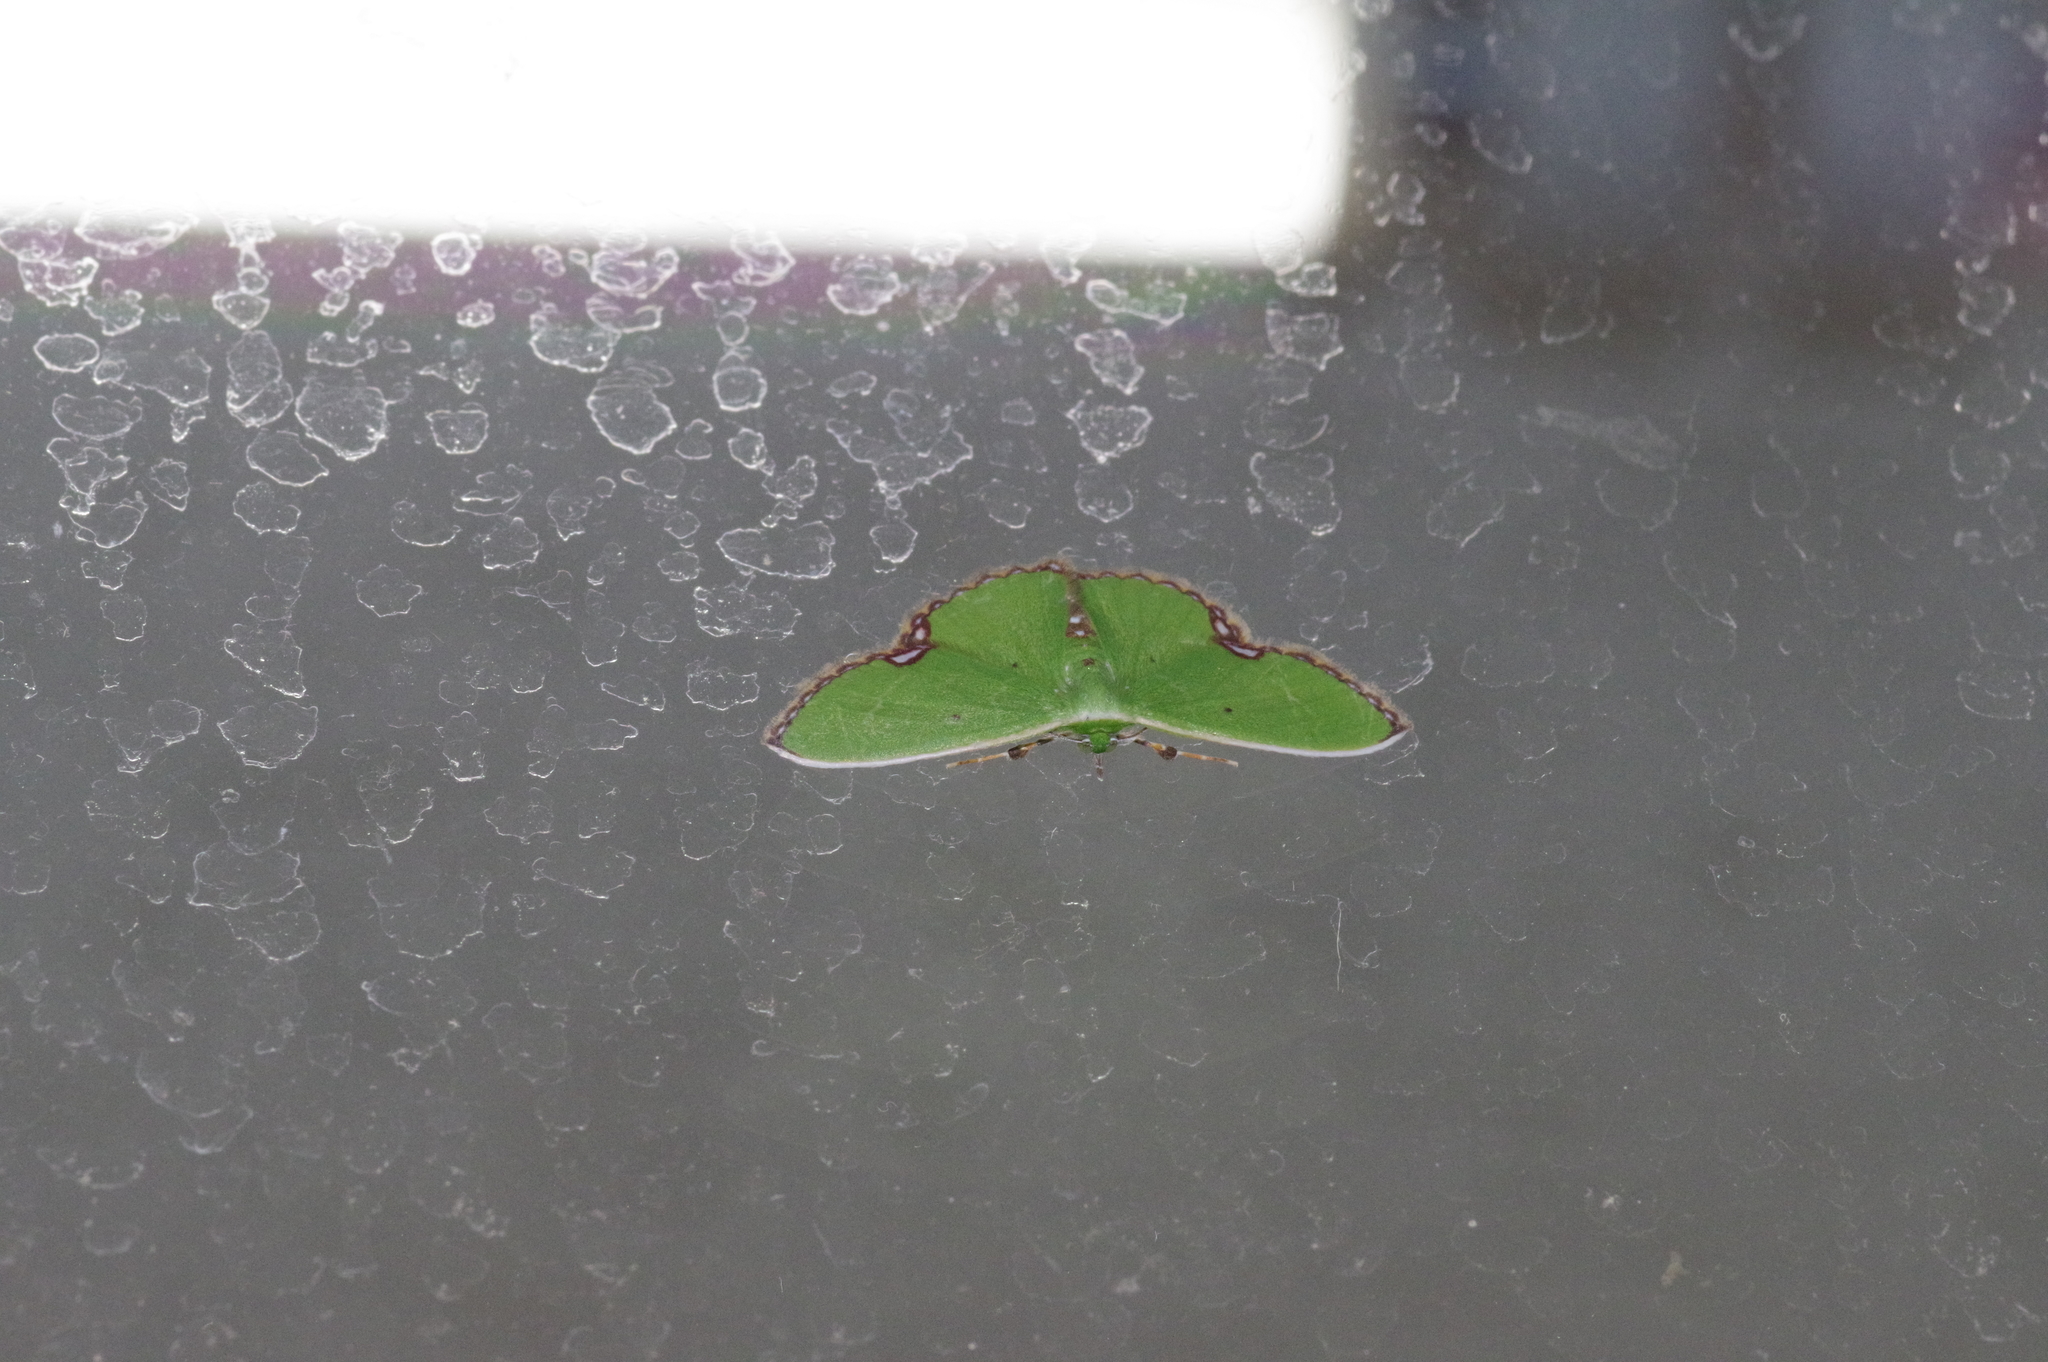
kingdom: Animalia
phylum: Arthropoda
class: Insecta
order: Lepidoptera
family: Geometridae
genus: Comibaena
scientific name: Comibaena procumbaria
